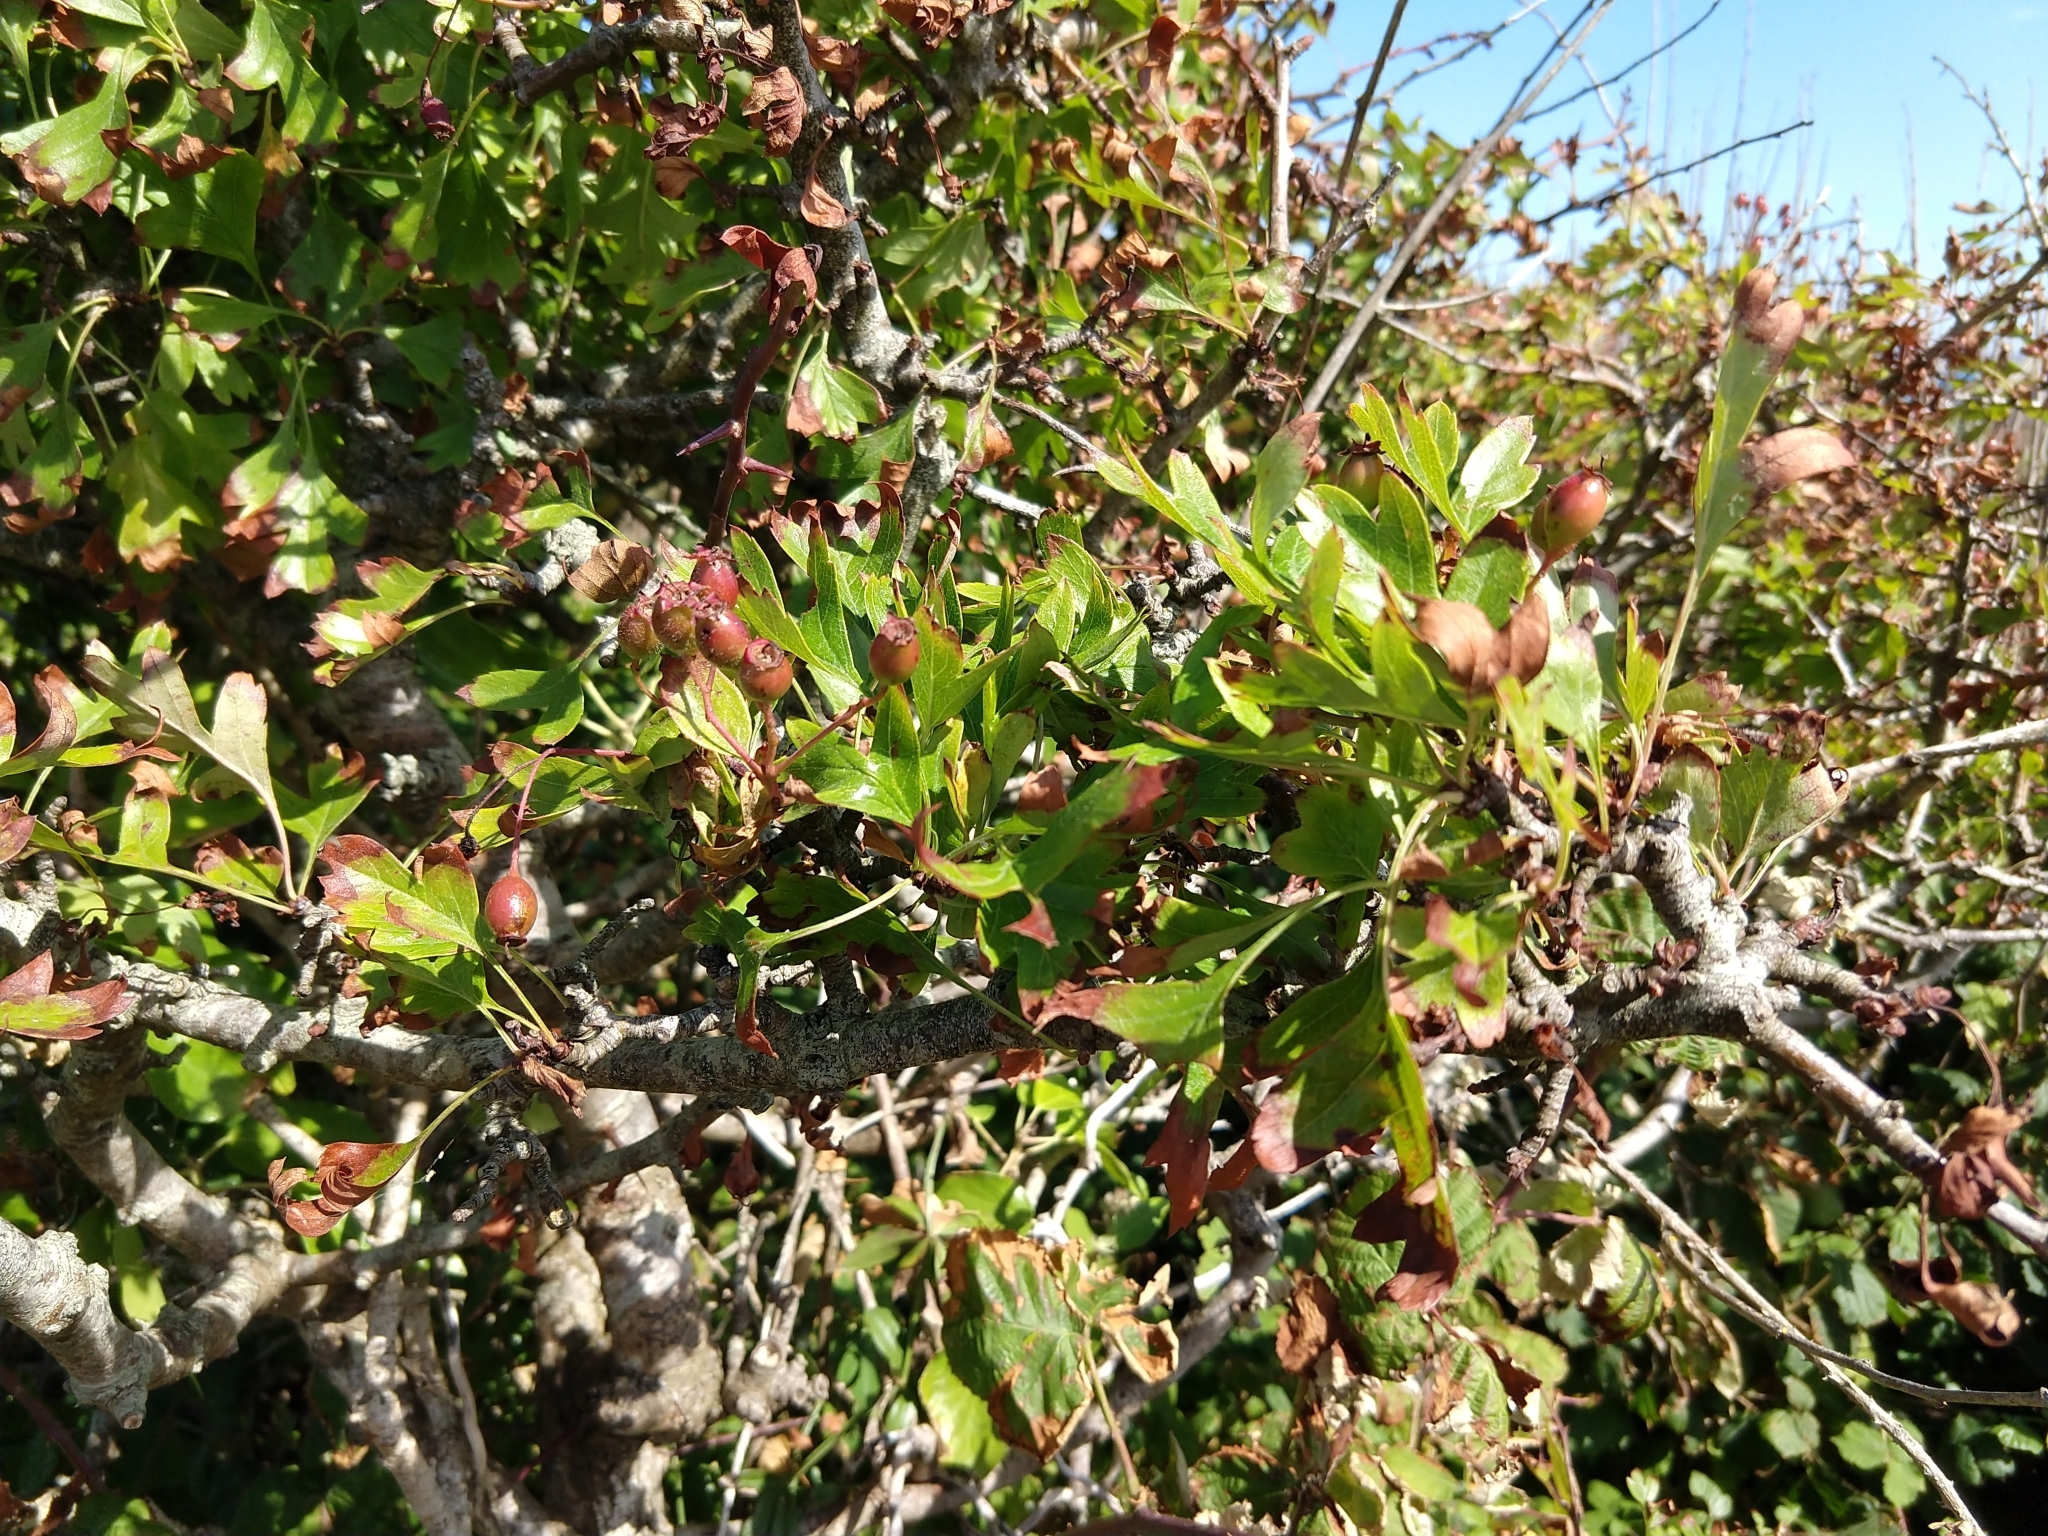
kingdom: Plantae
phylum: Tracheophyta
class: Magnoliopsida
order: Rosales
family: Rosaceae
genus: Crataegus
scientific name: Crataegus monogyna
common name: Hawthorn
